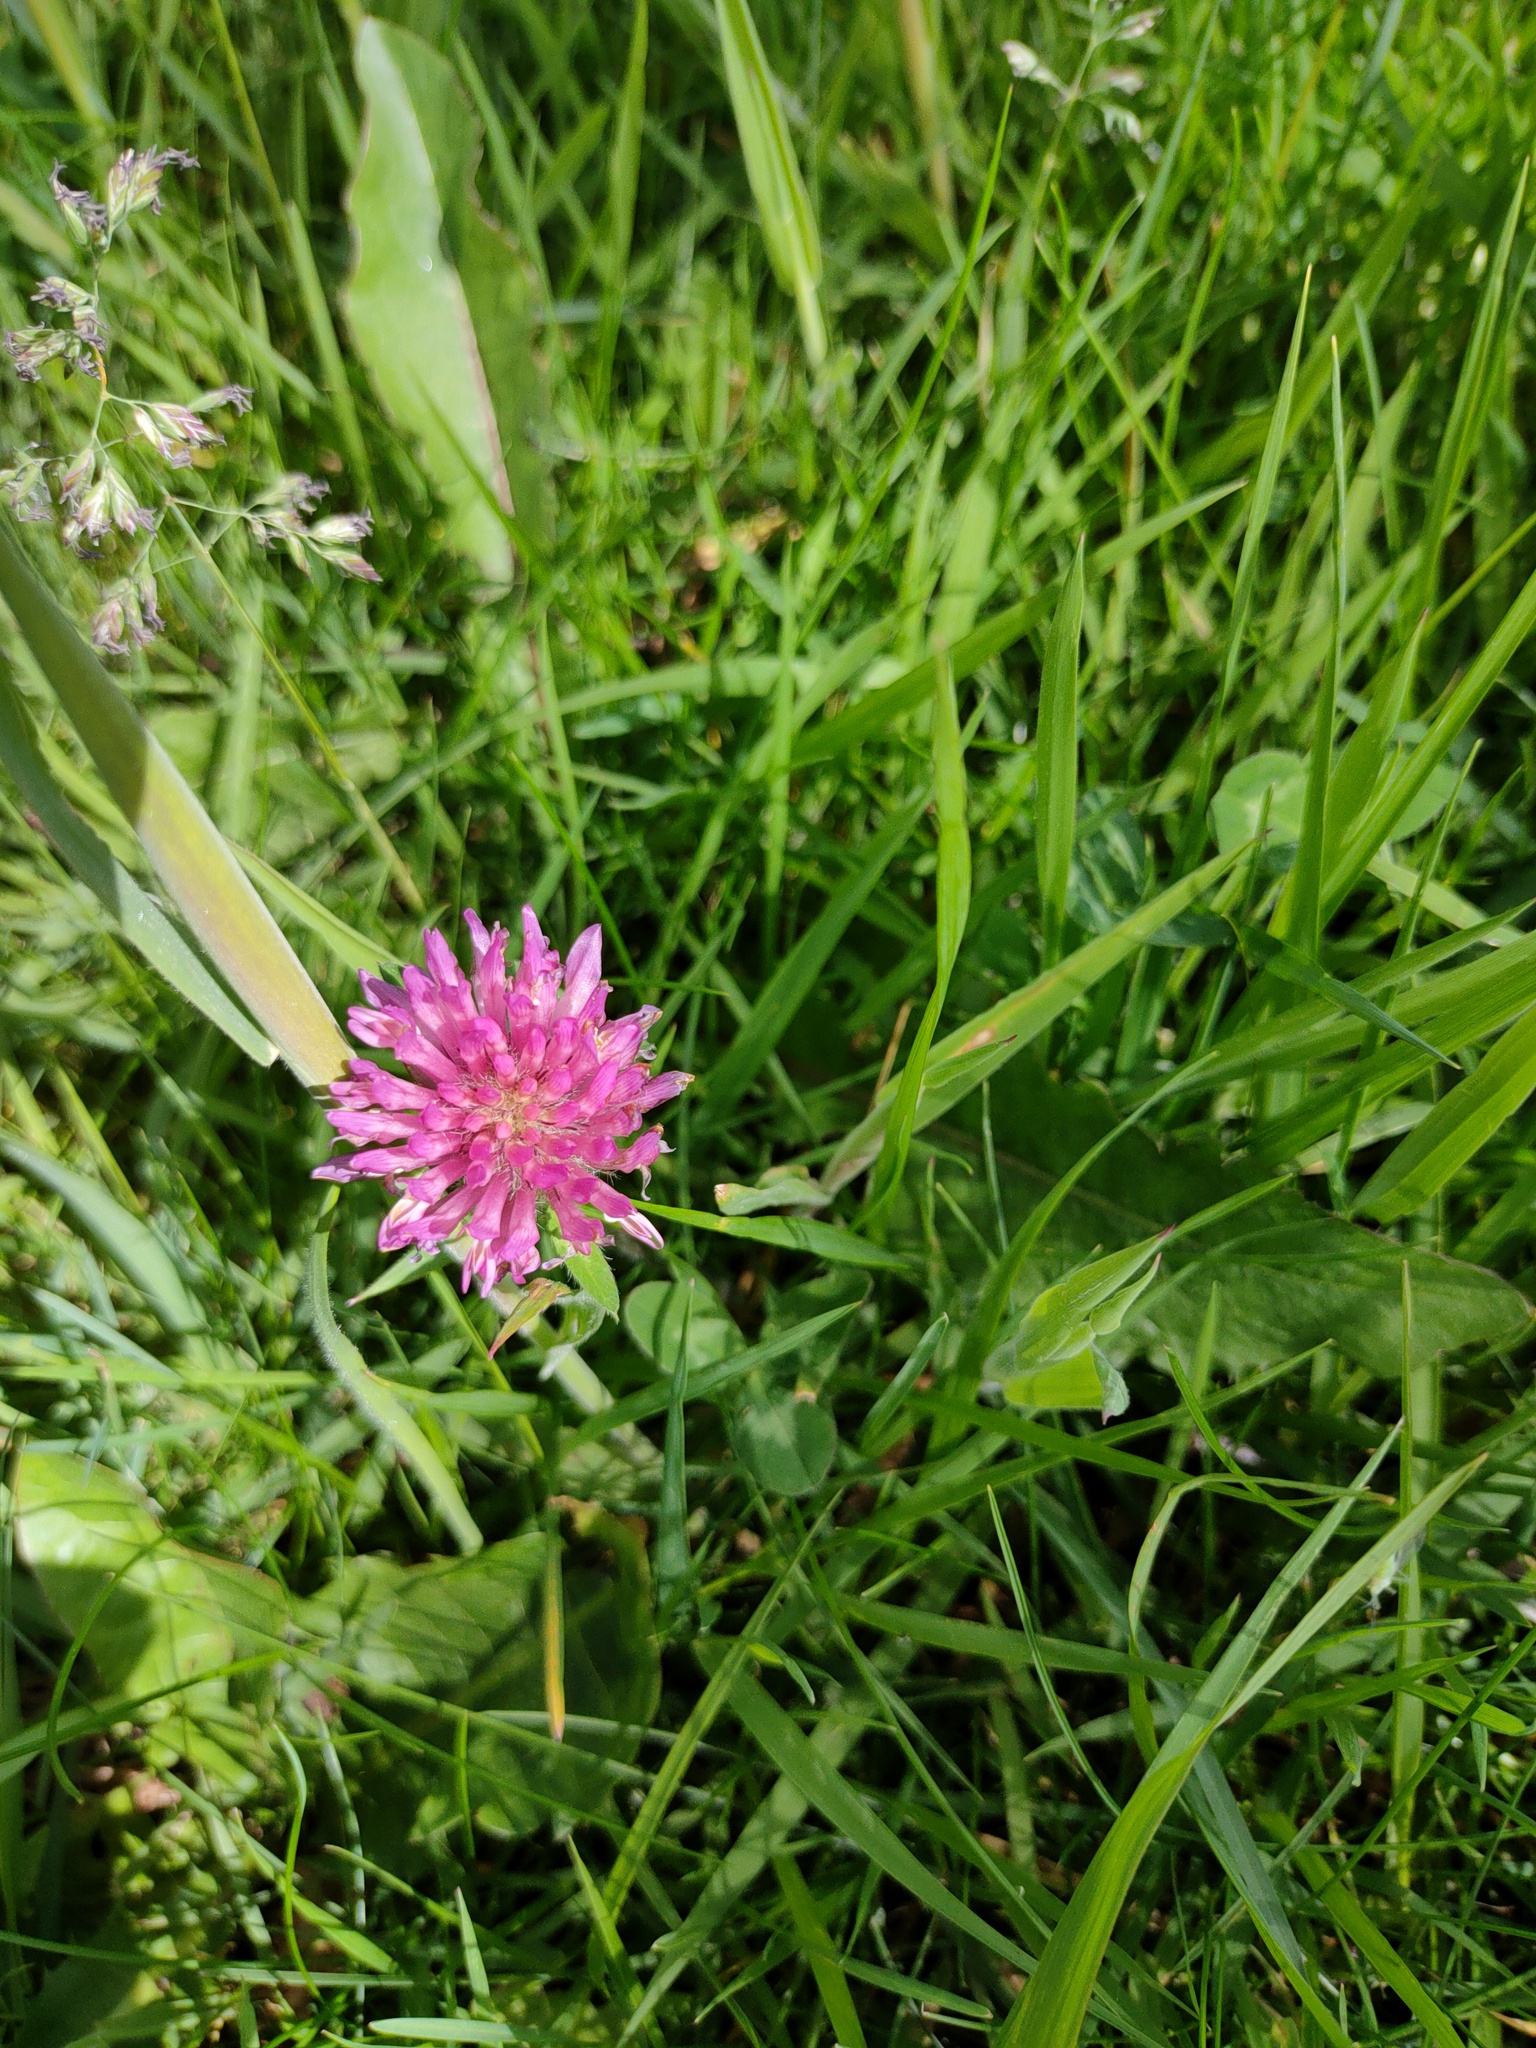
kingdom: Plantae
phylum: Tracheophyta
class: Magnoliopsida
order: Fabales
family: Fabaceae
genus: Trifolium
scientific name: Trifolium pratense
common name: Red clover
